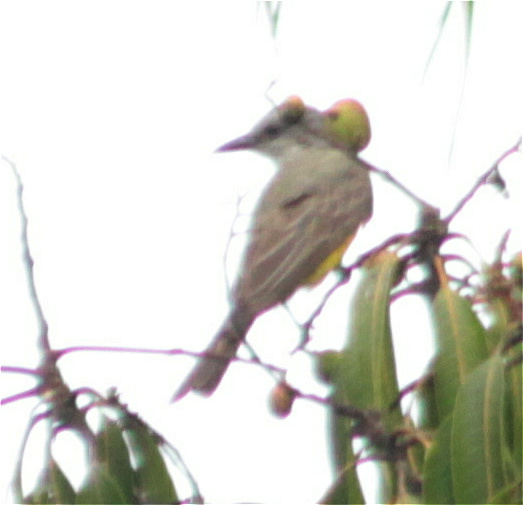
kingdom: Animalia
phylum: Chordata
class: Aves
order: Passeriformes
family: Tyrannidae
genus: Tyrannus
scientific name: Tyrannus melancholicus
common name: Tropical kingbird
